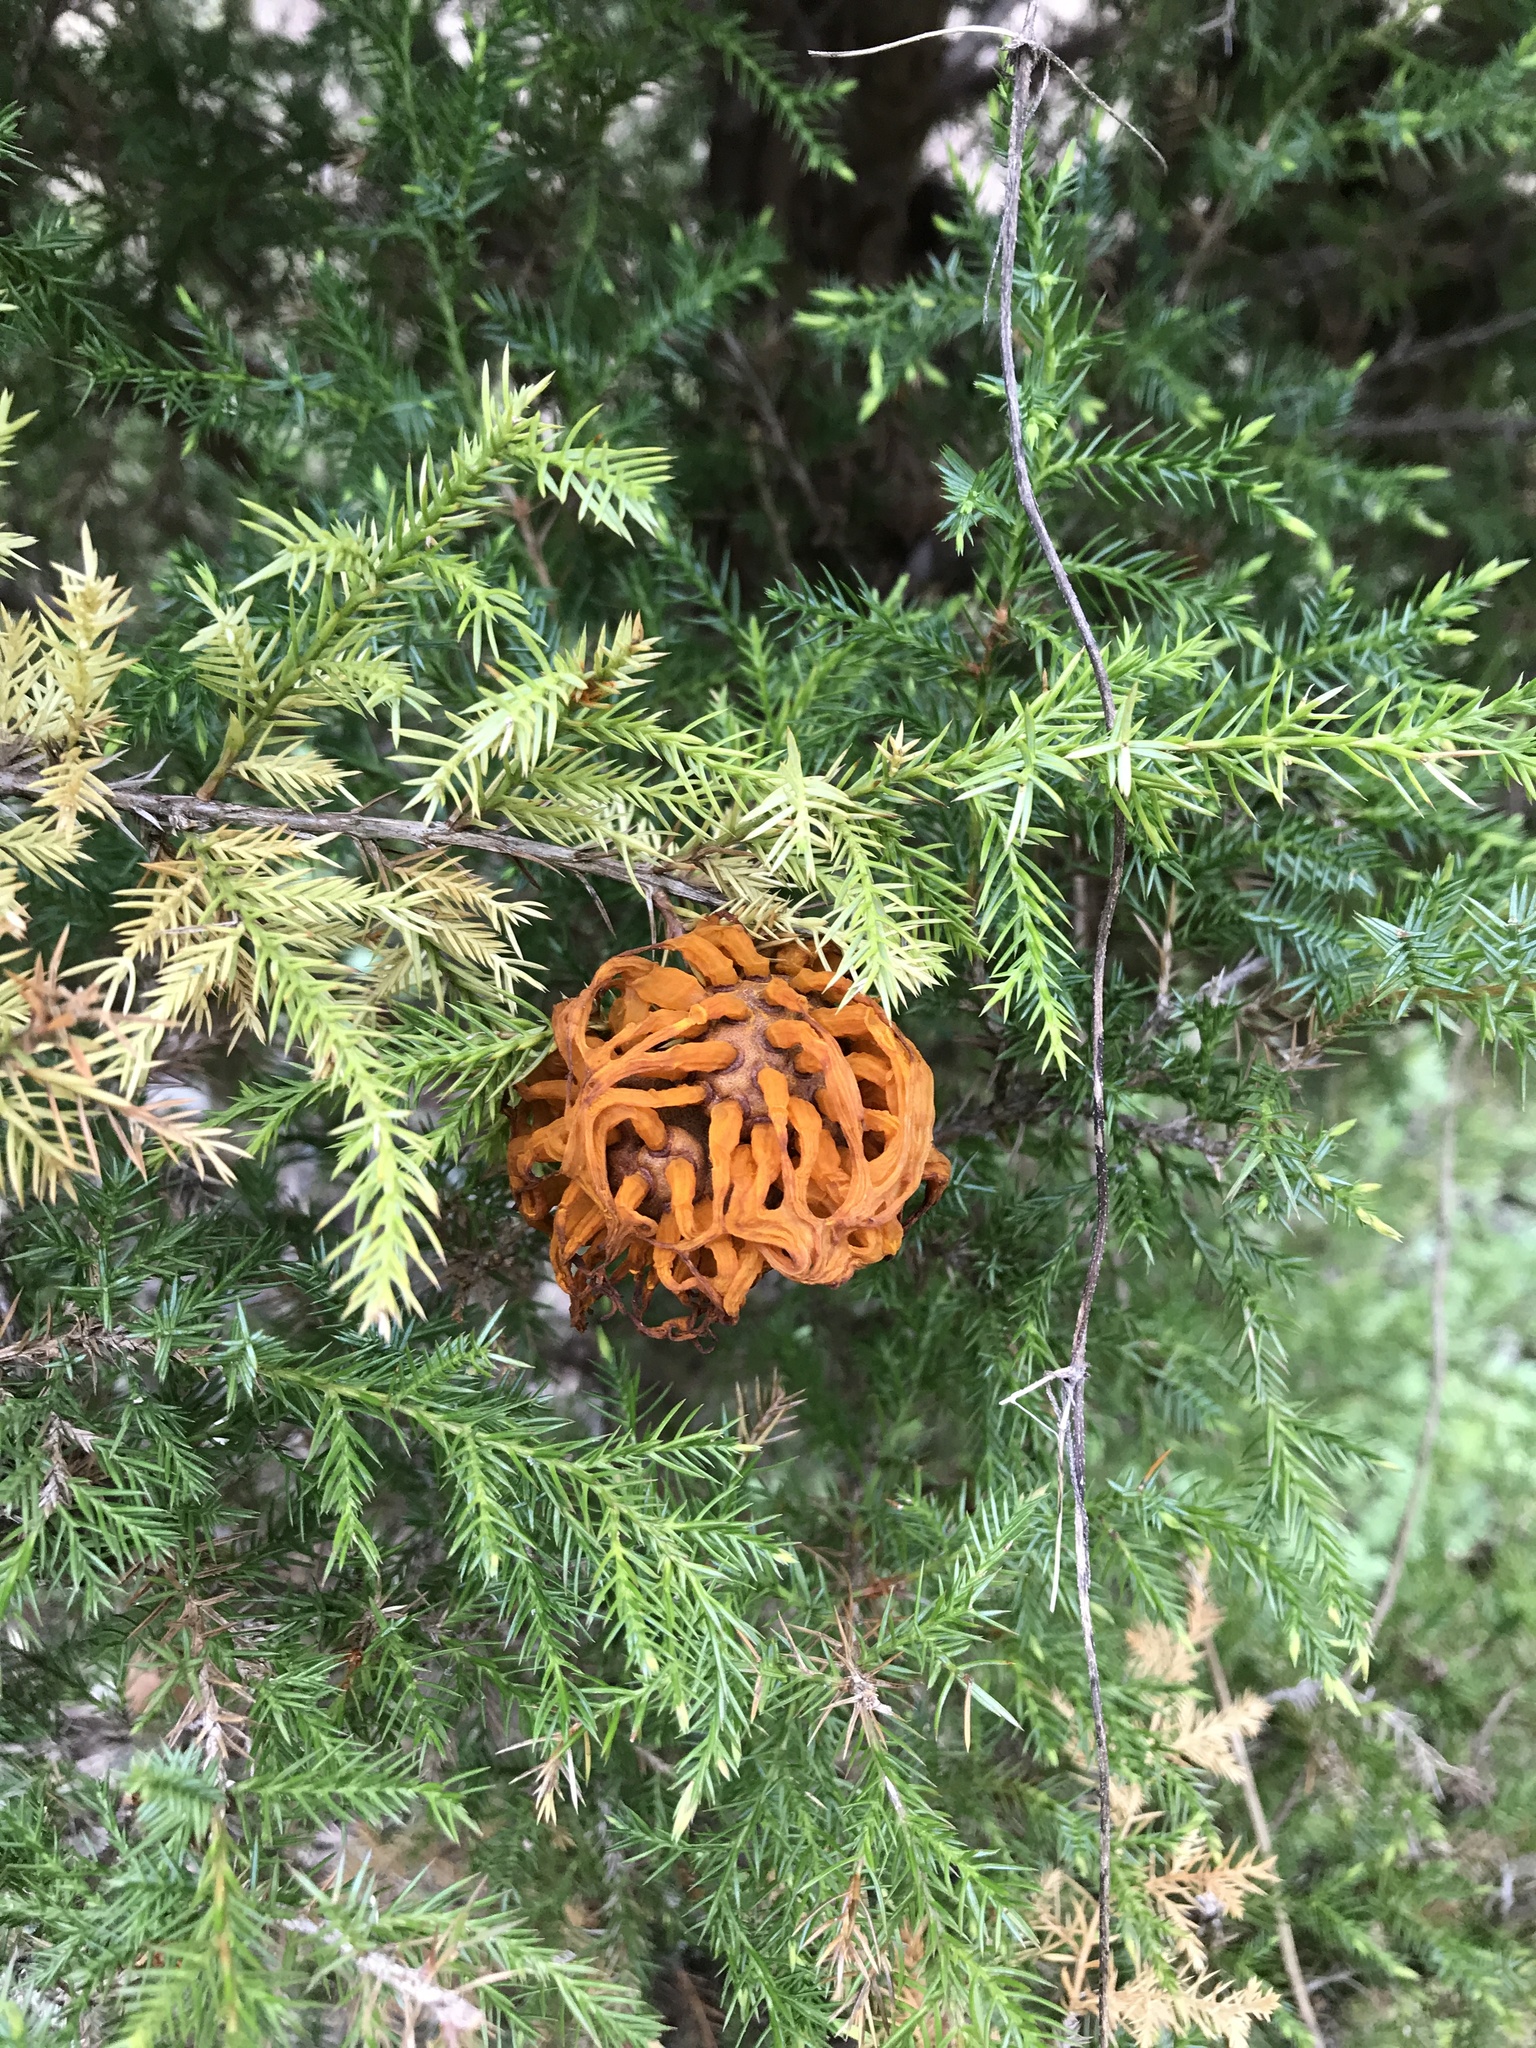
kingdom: Fungi
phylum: Basidiomycota
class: Pucciniomycetes
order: Pucciniales
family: Gymnosporangiaceae
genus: Gymnosporangium
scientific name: Gymnosporangium juniperi-virginianae
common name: Juniper-apple rust
